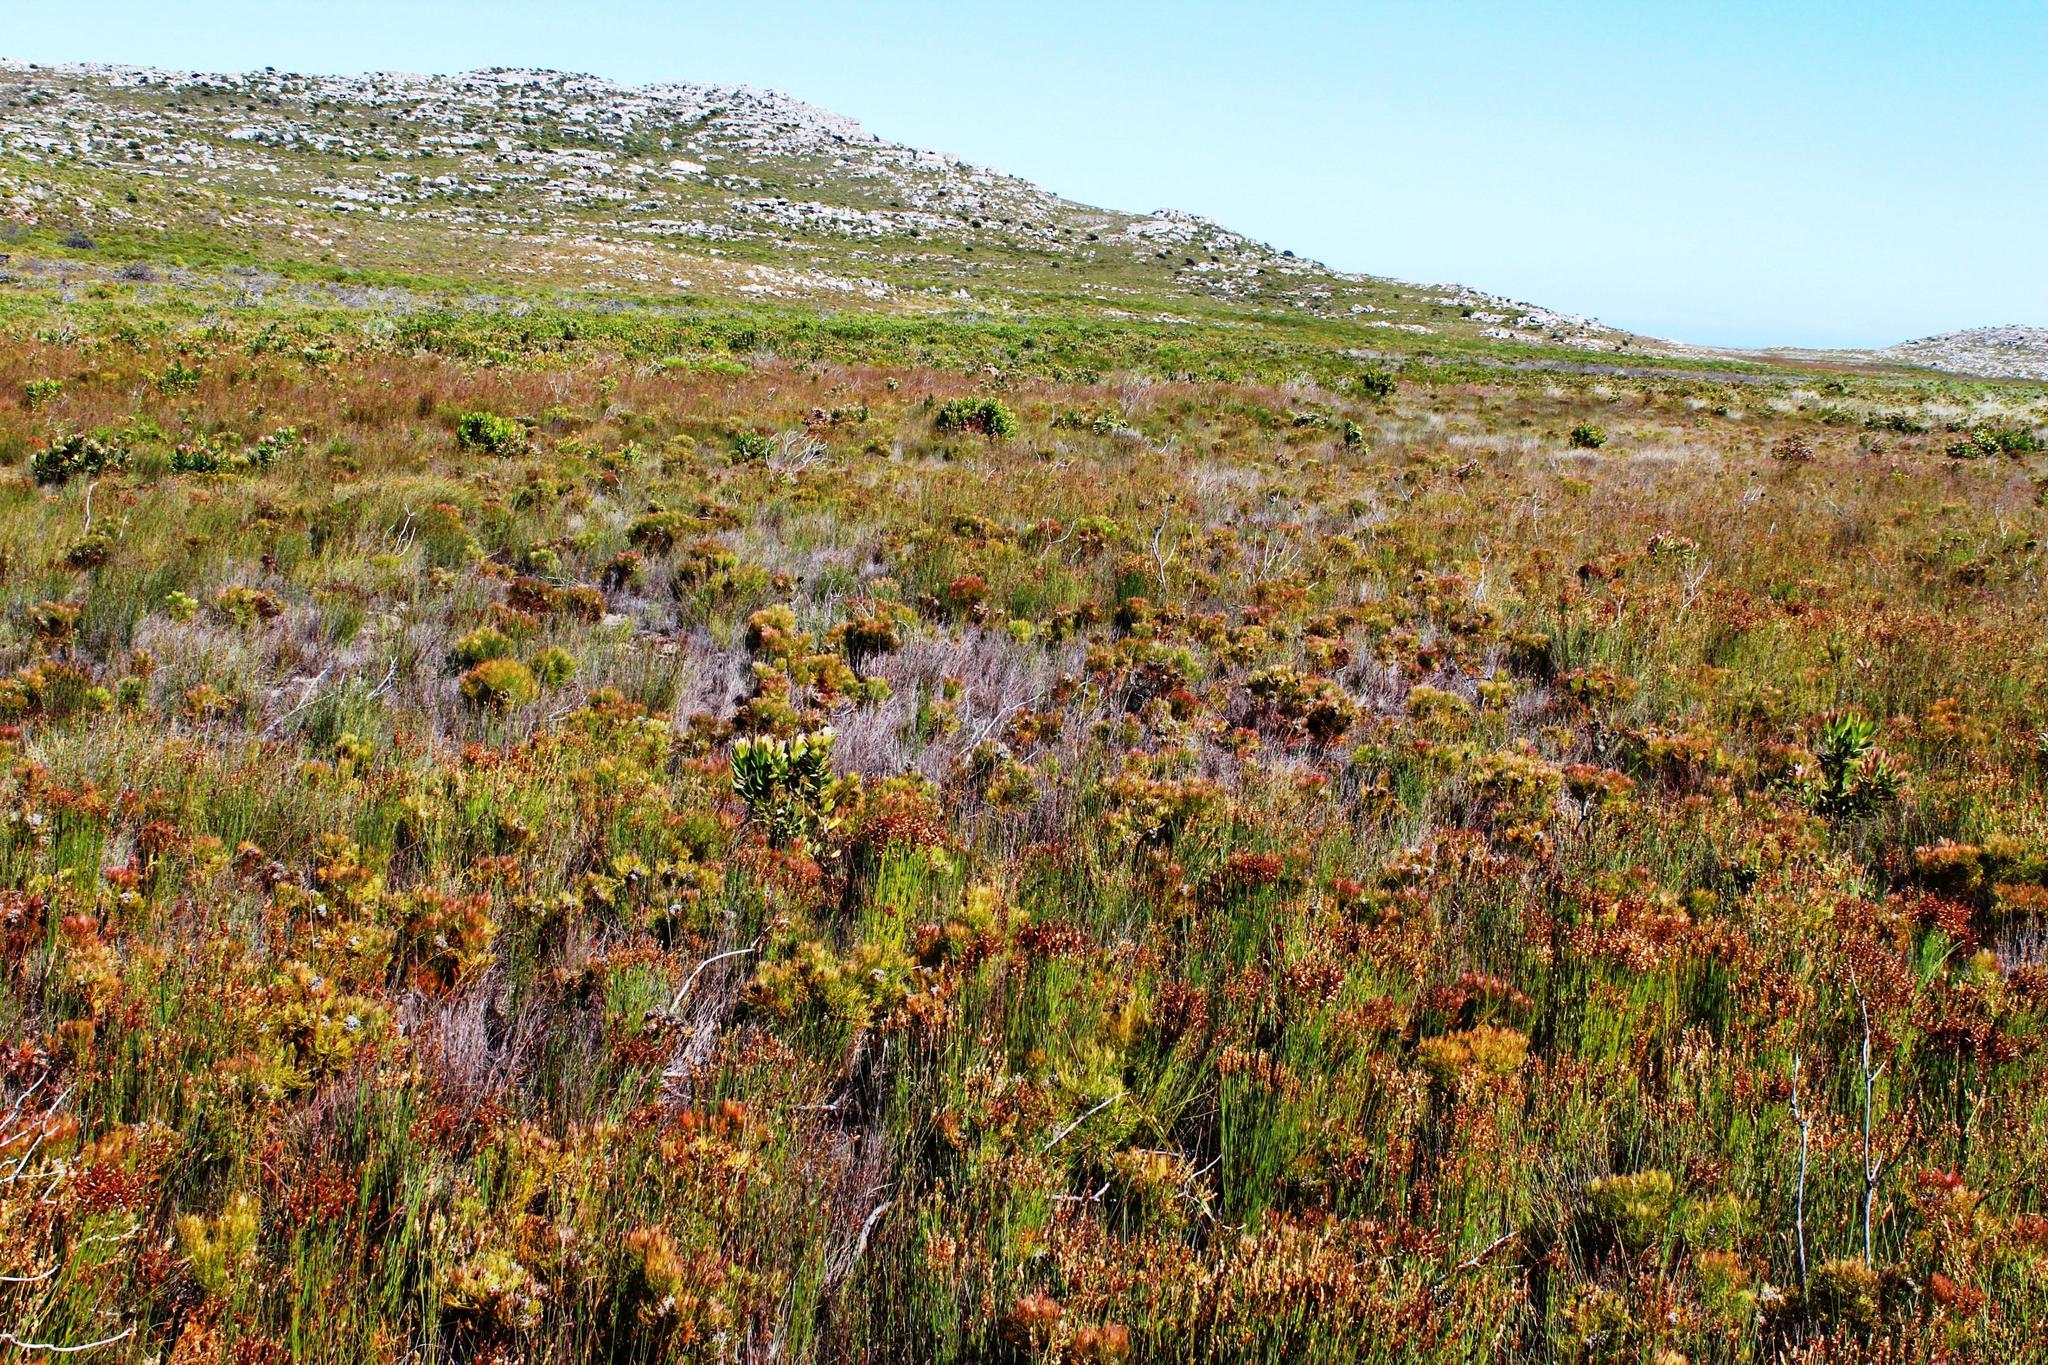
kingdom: Plantae
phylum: Tracheophyta
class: Magnoliopsida
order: Proteales
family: Proteaceae
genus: Serruria
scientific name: Serruria glomerata
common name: Cluster spiderhead
